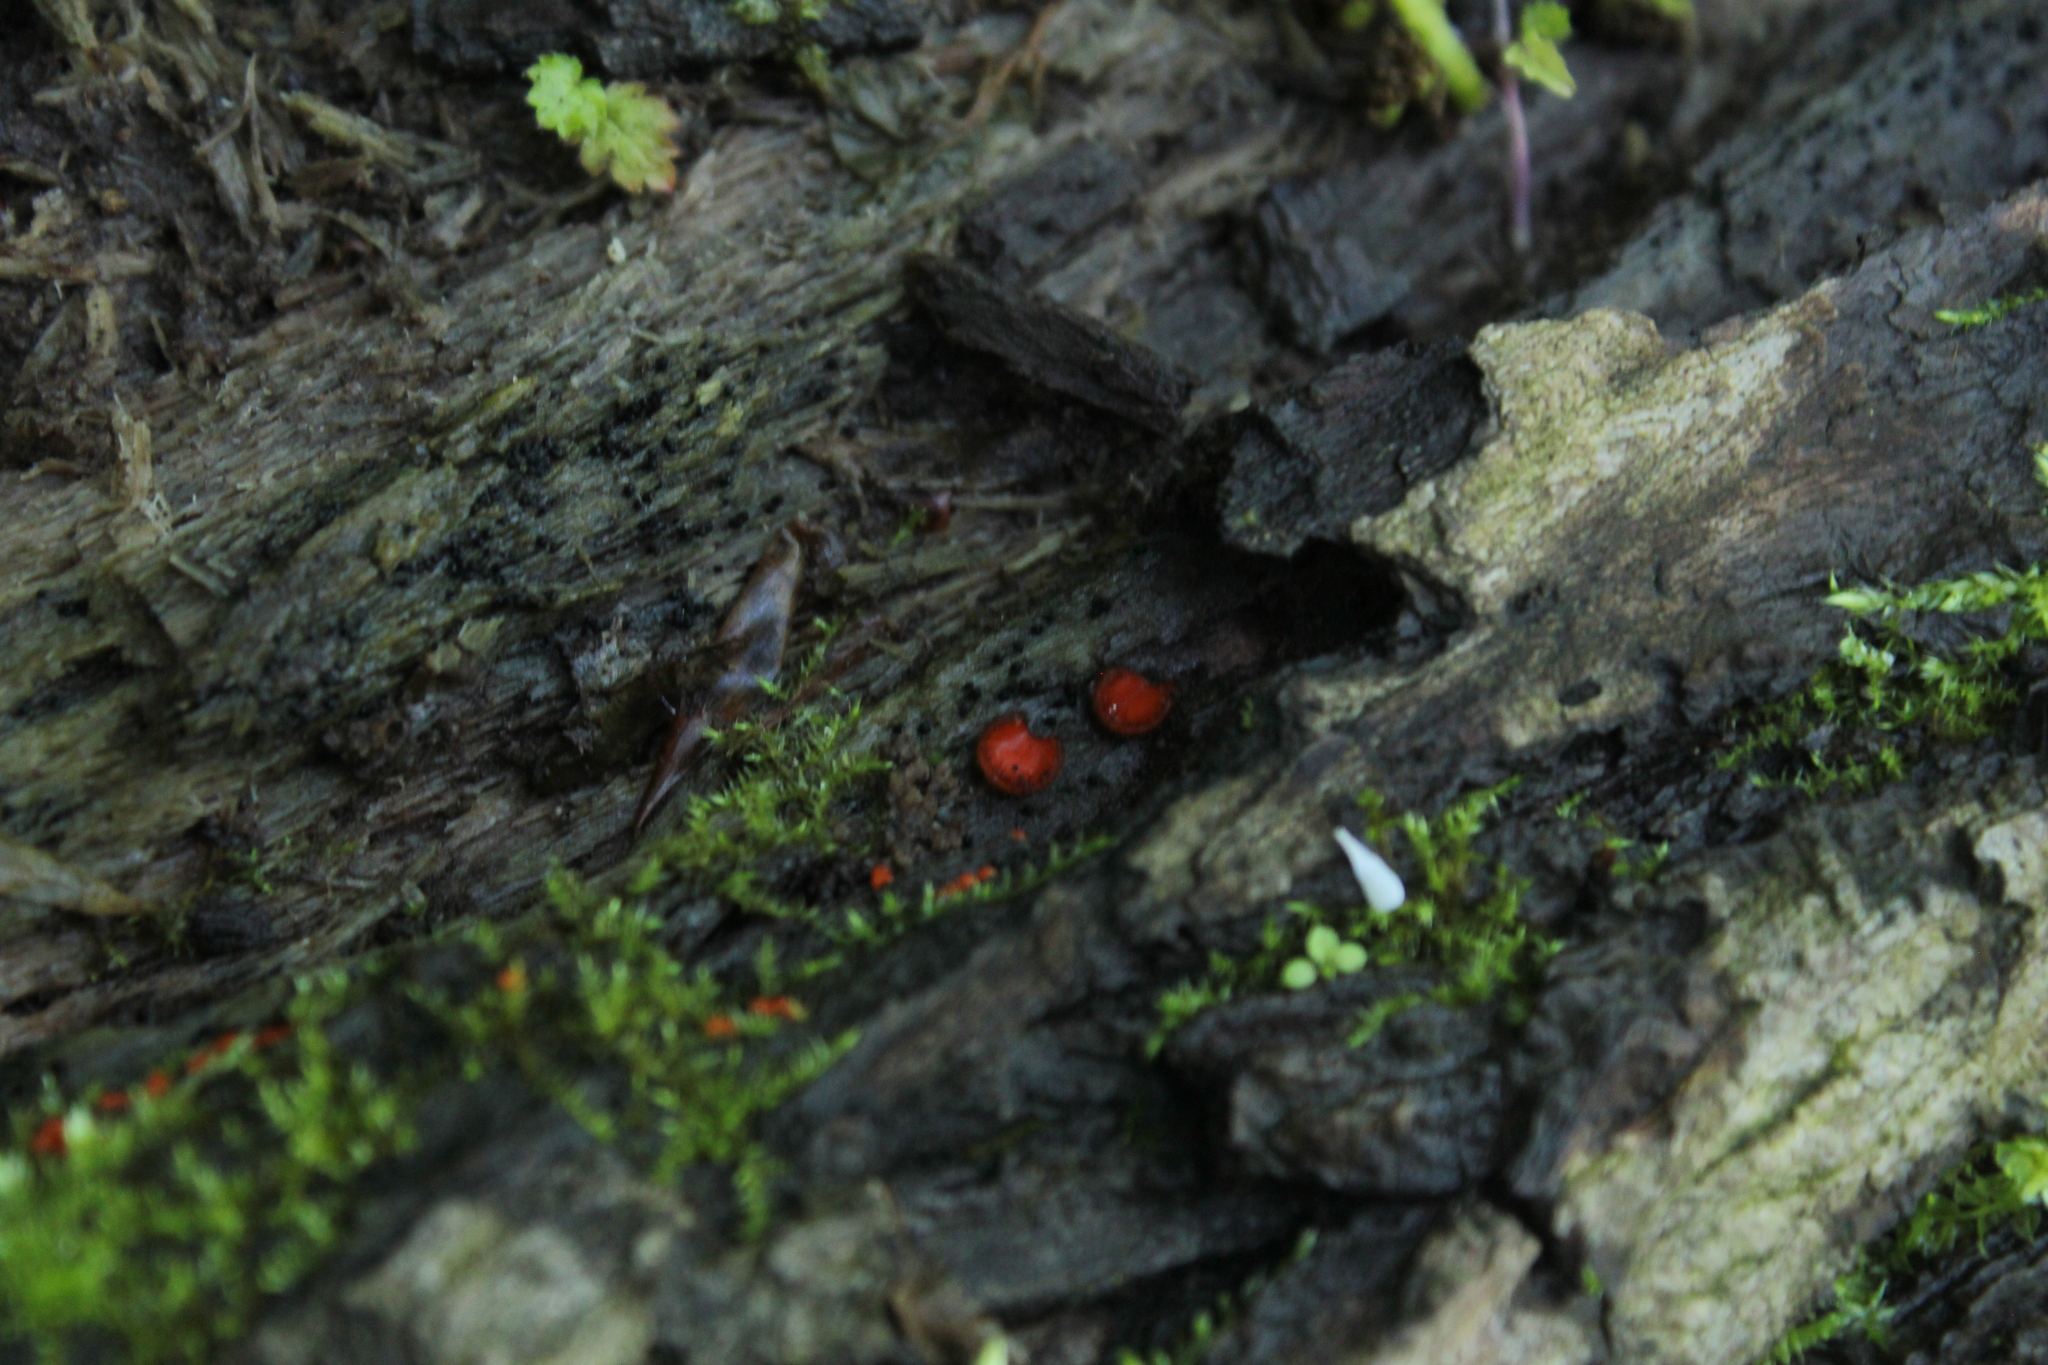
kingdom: Fungi
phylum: Ascomycota
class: Pezizomycetes
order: Pezizales
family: Pyronemataceae
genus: Scutellinia
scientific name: Scutellinia
